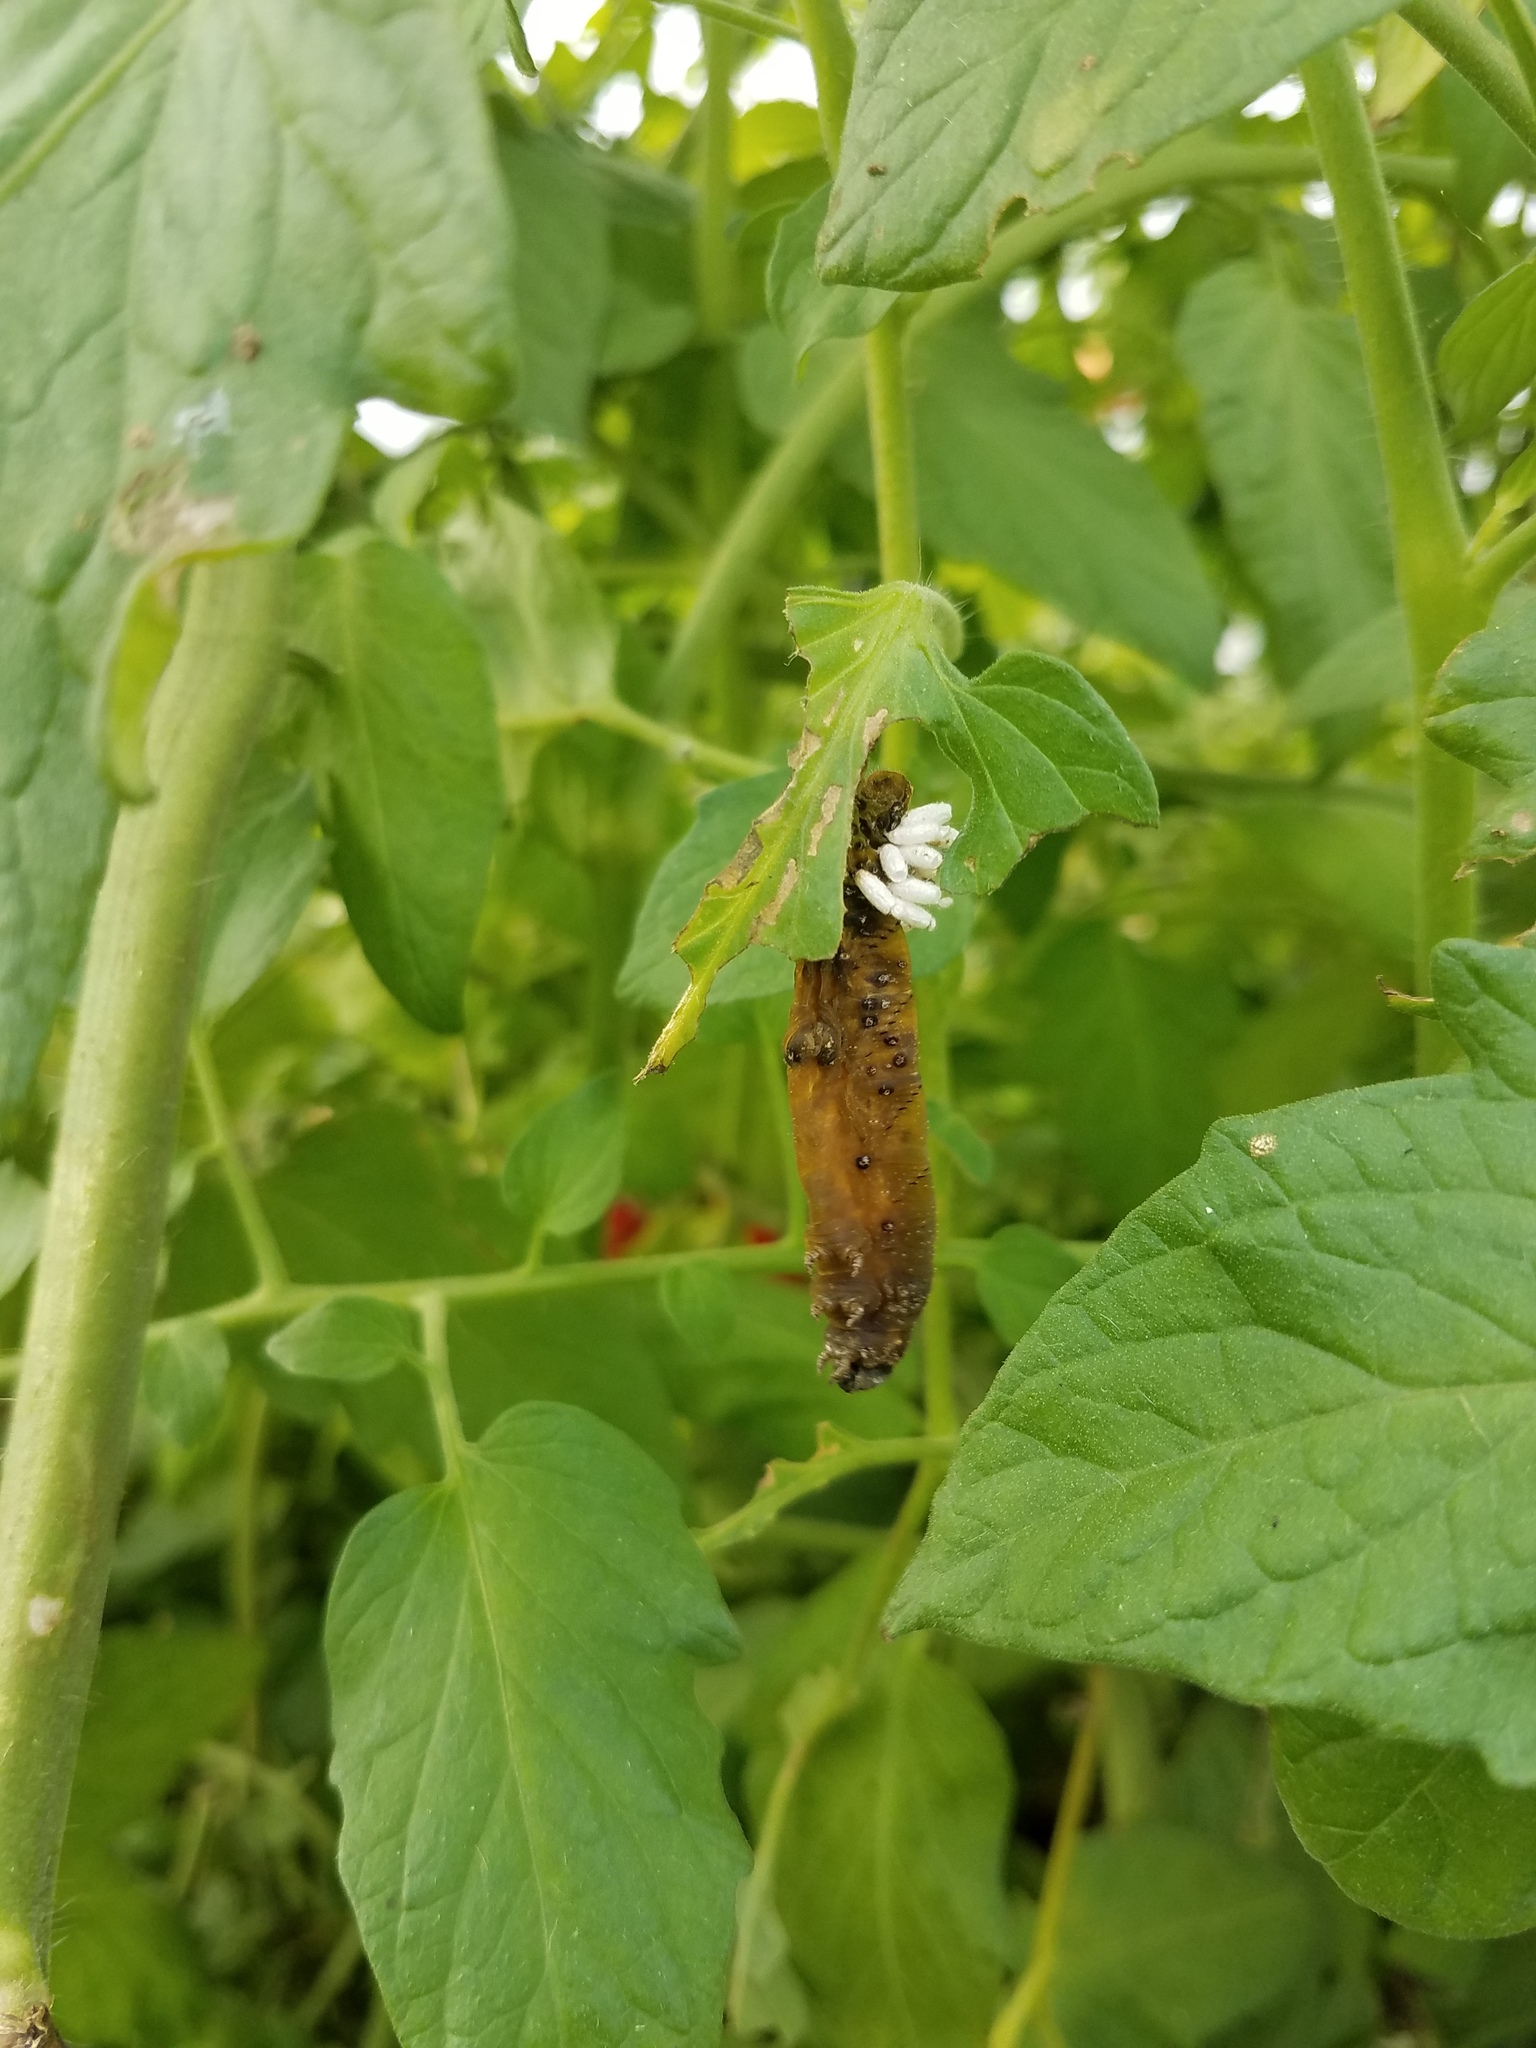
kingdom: Animalia
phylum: Arthropoda
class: Insecta
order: Hymenoptera
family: Braconidae
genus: Cotesia
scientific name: Cotesia congregata
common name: Hornworm parasitoid wasp
